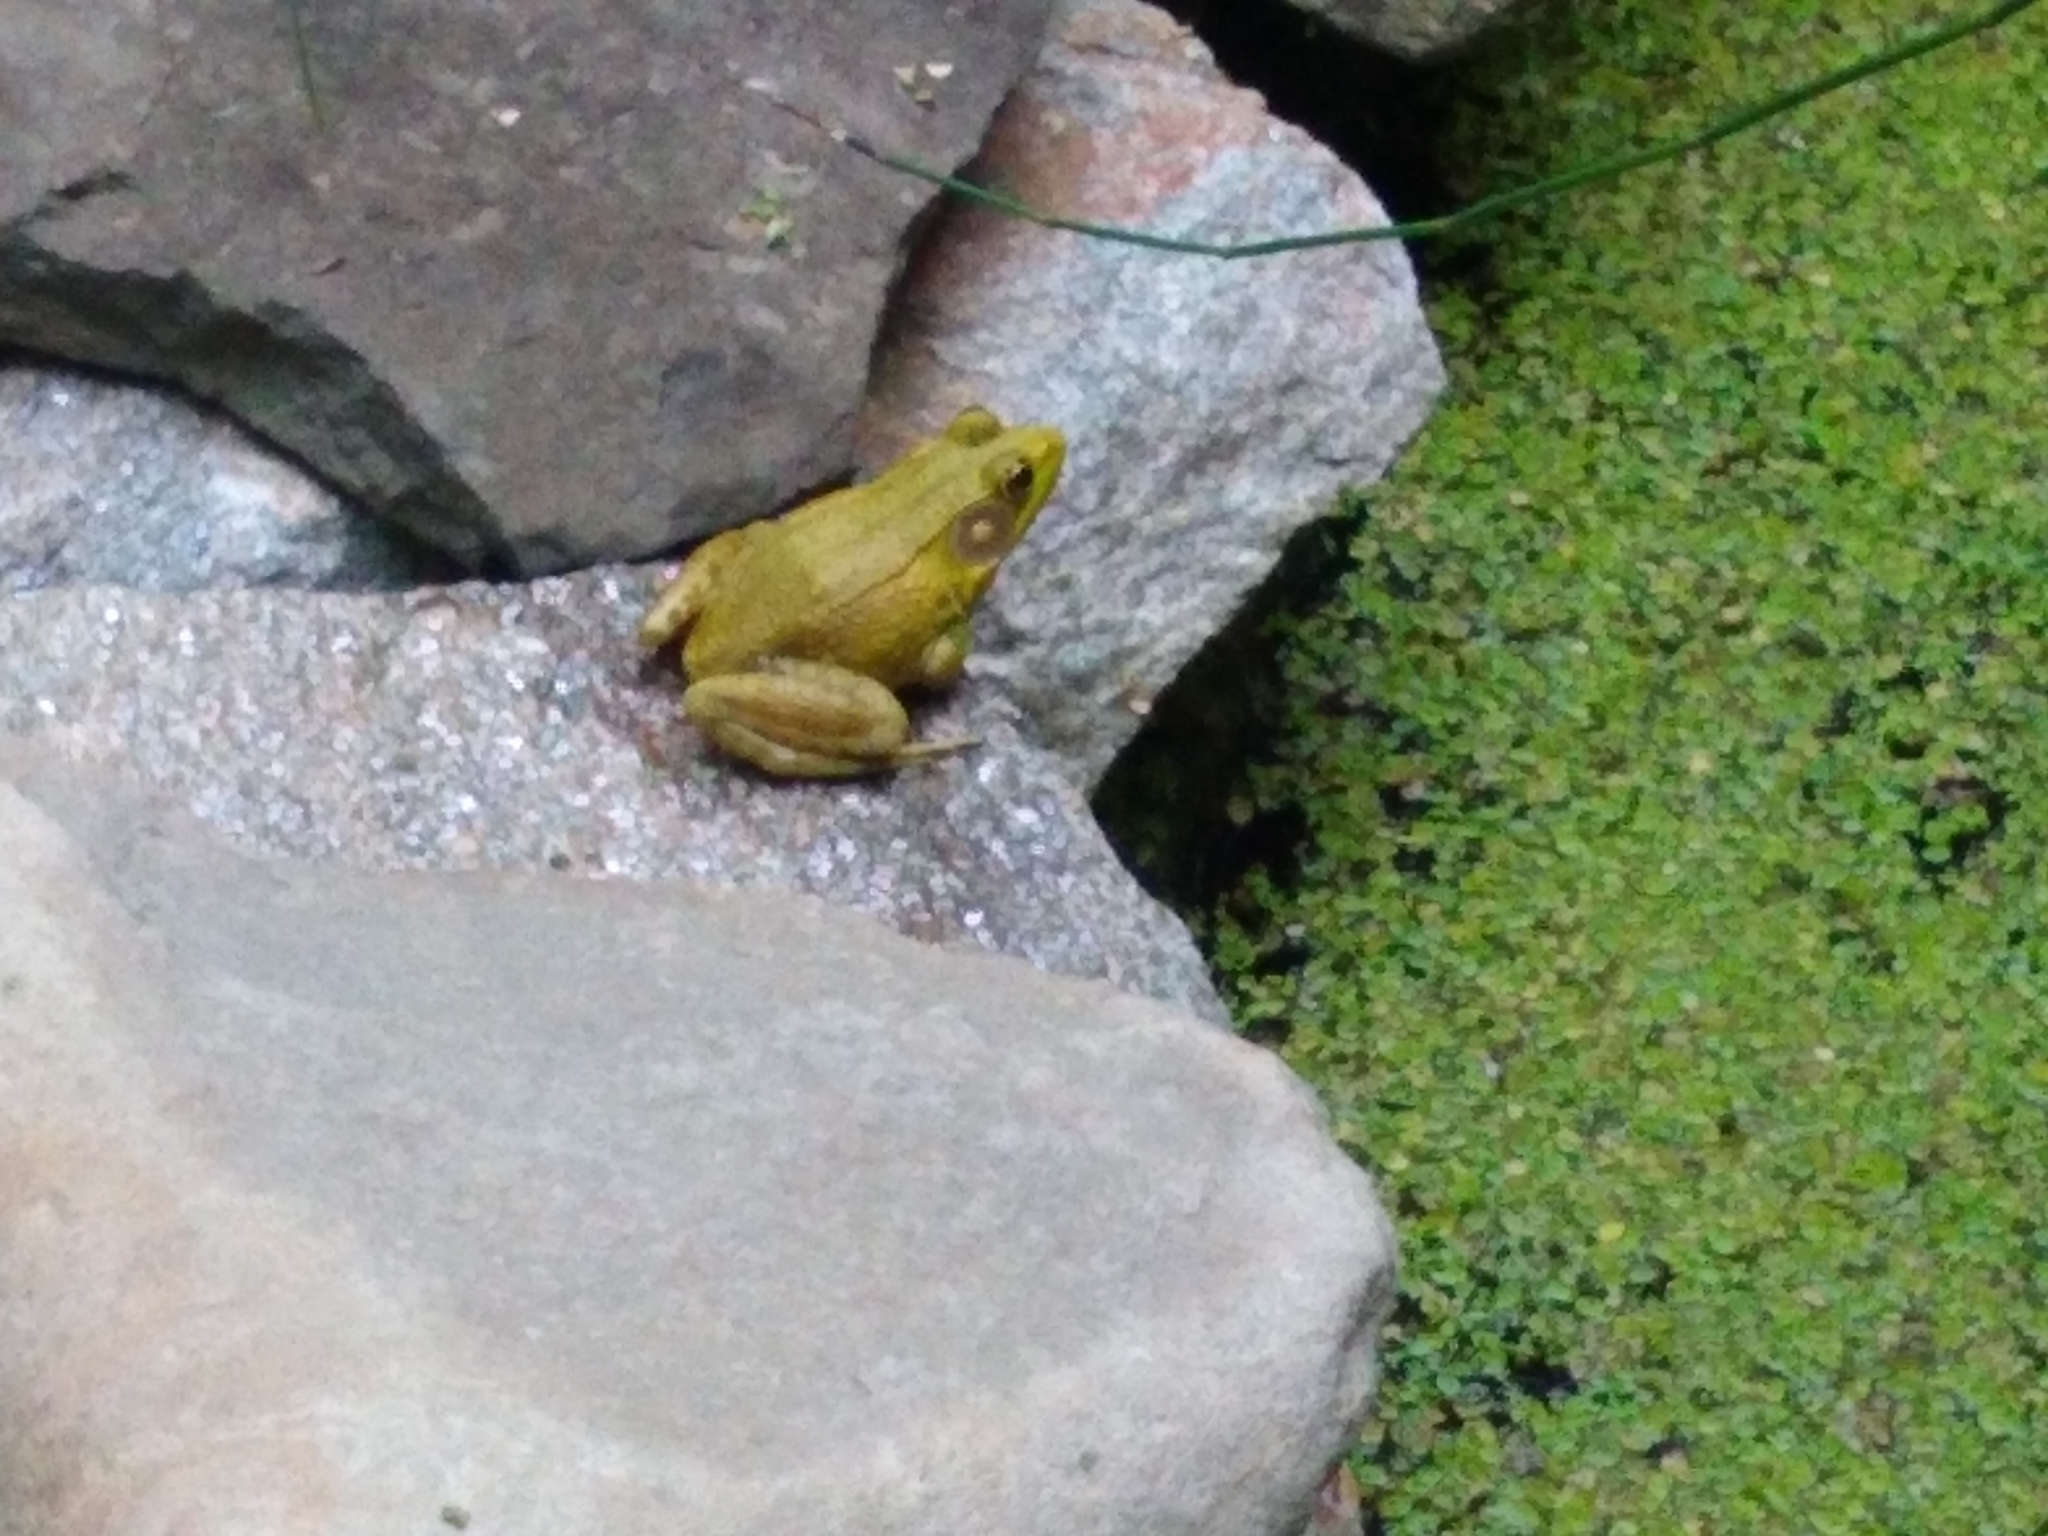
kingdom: Animalia
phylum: Chordata
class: Amphibia
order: Anura
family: Ranidae
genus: Lithobates
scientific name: Lithobates clamitans
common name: Green frog
